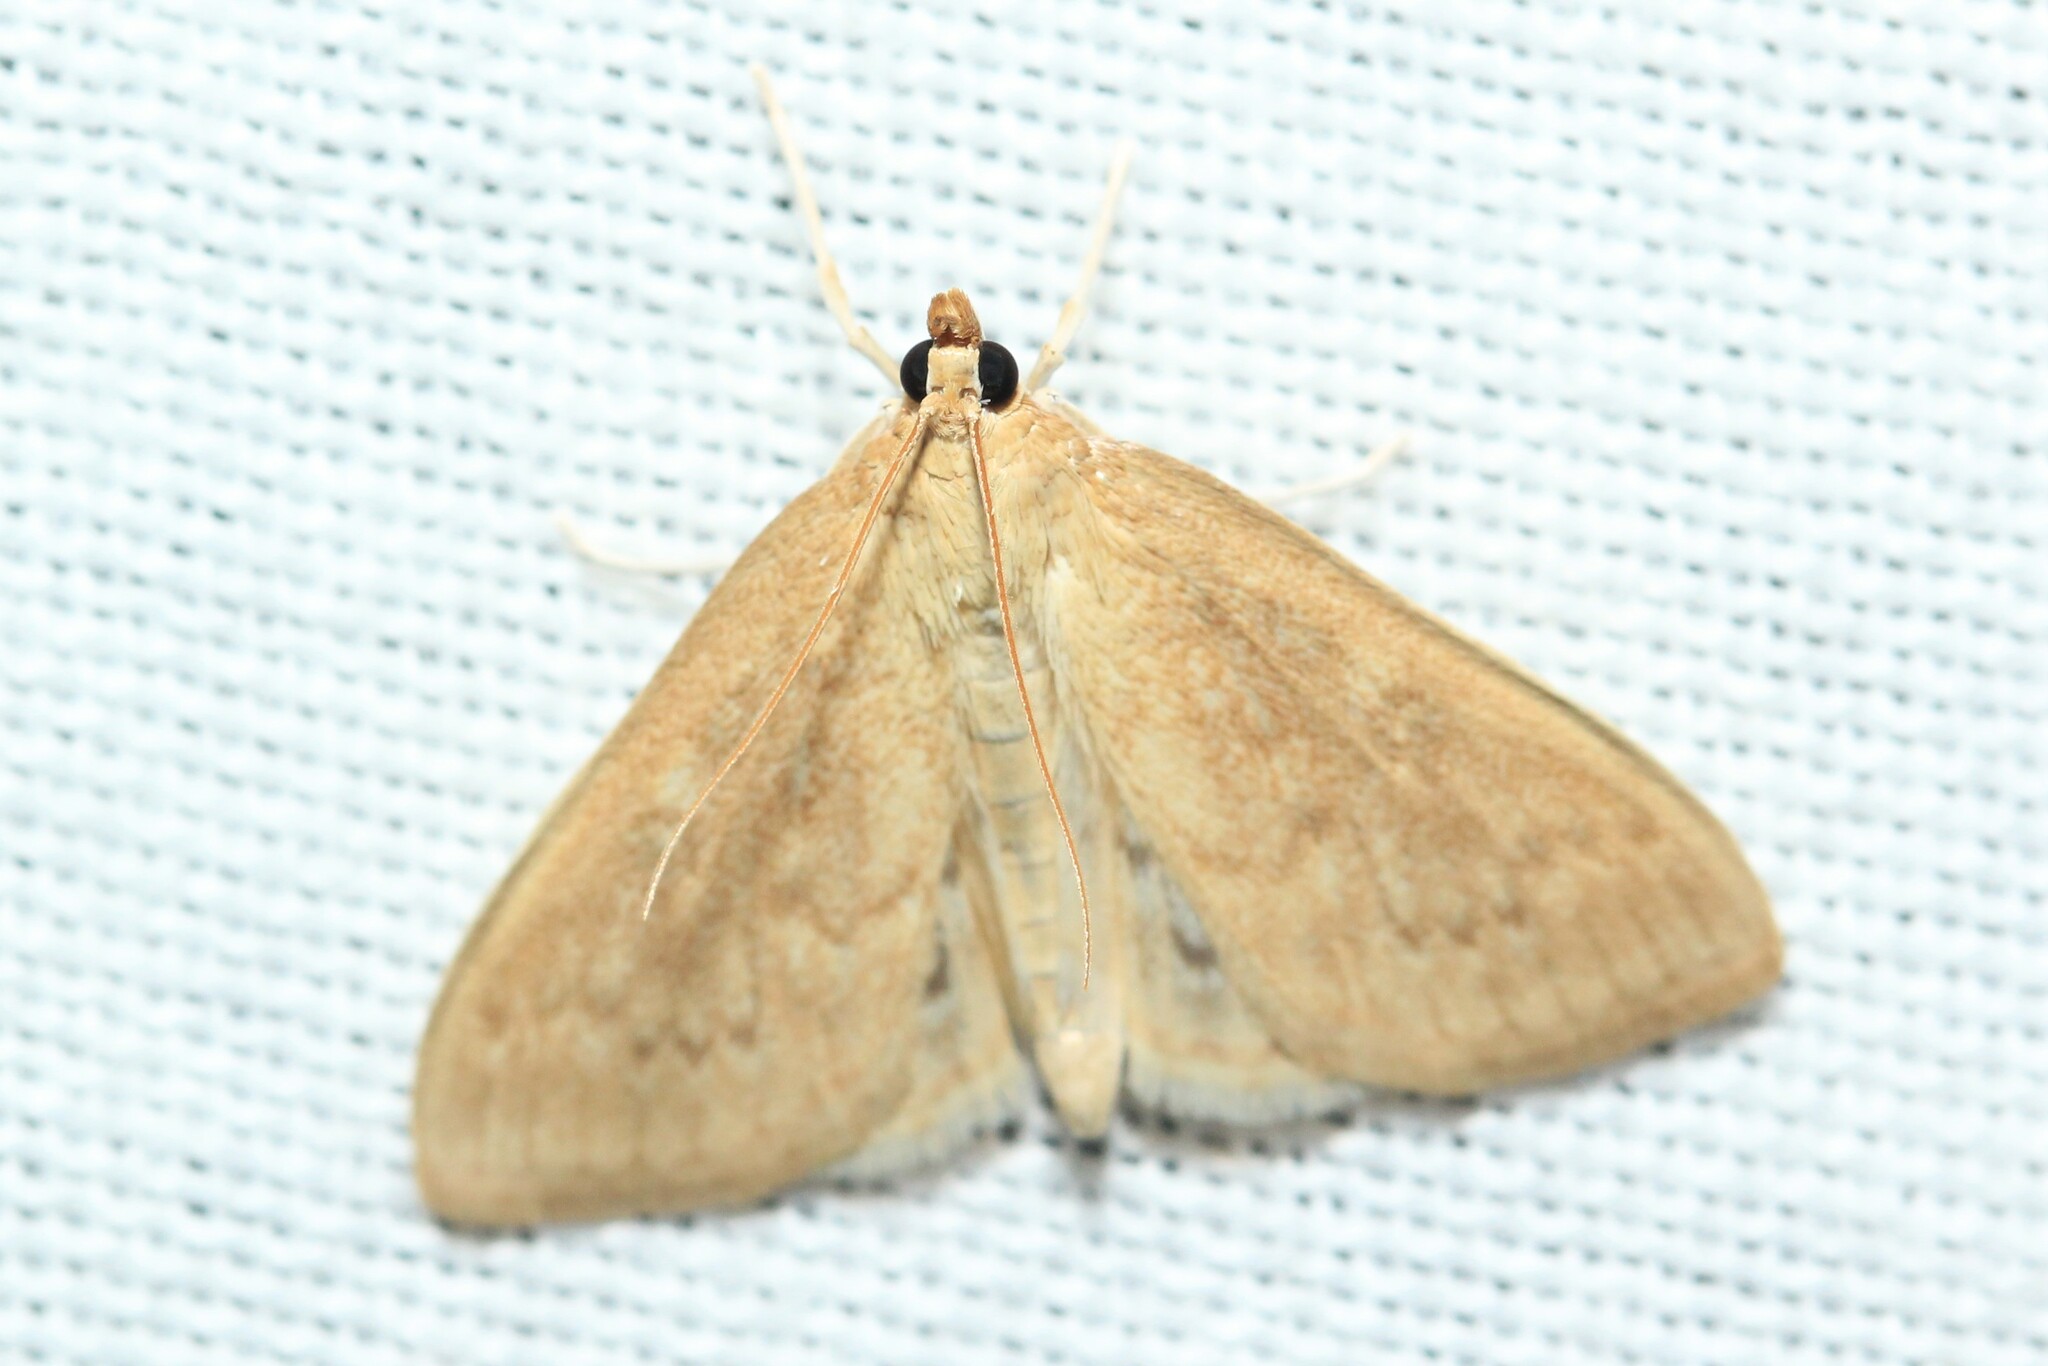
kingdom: Animalia
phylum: Arthropoda
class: Insecta
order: Lepidoptera
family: Crambidae
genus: Anania
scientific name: Anania Framinghamia helvalis
